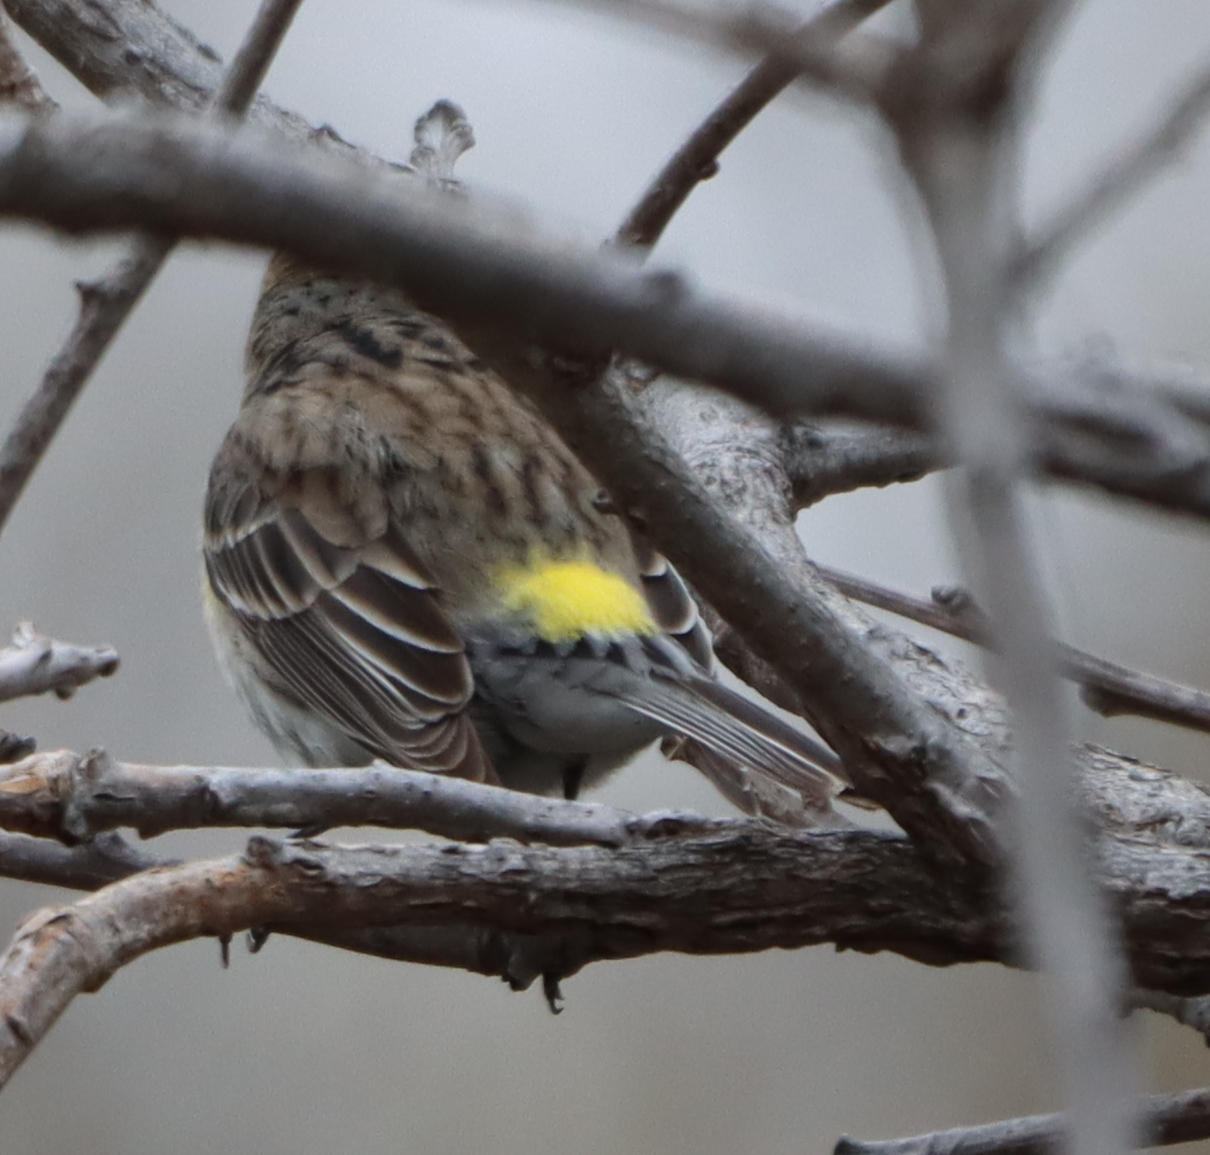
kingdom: Animalia
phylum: Chordata
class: Aves
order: Passeriformes
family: Parulidae
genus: Setophaga
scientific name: Setophaga coronata
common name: Myrtle warbler
